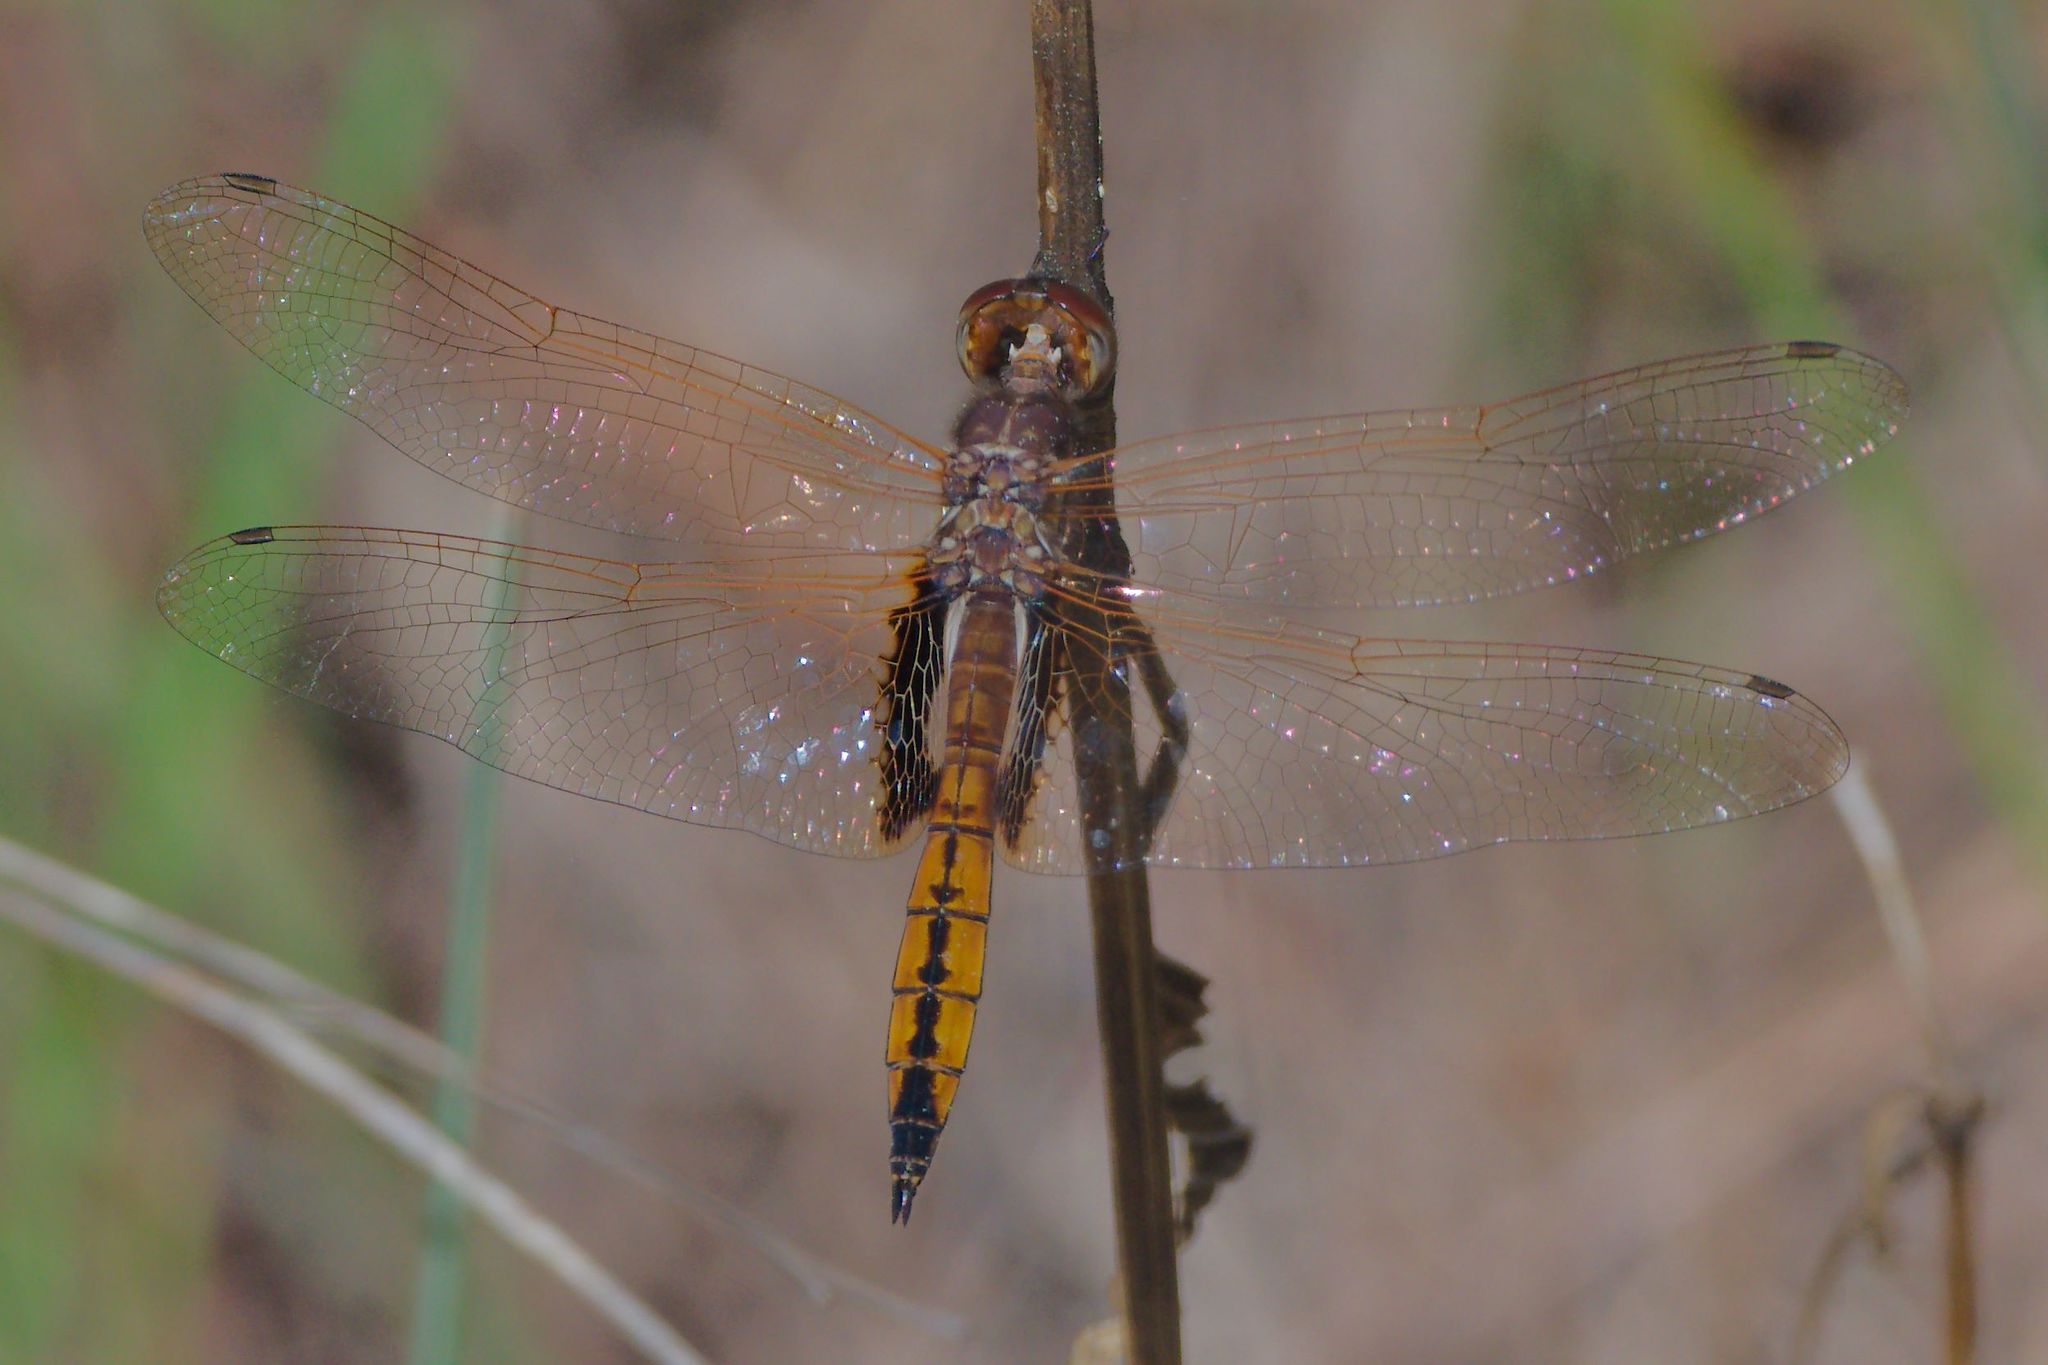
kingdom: Animalia
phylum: Arthropoda
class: Insecta
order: Odonata
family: Libellulidae
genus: Miathyria
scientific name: Miathyria marcella
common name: Hyacinth glider
